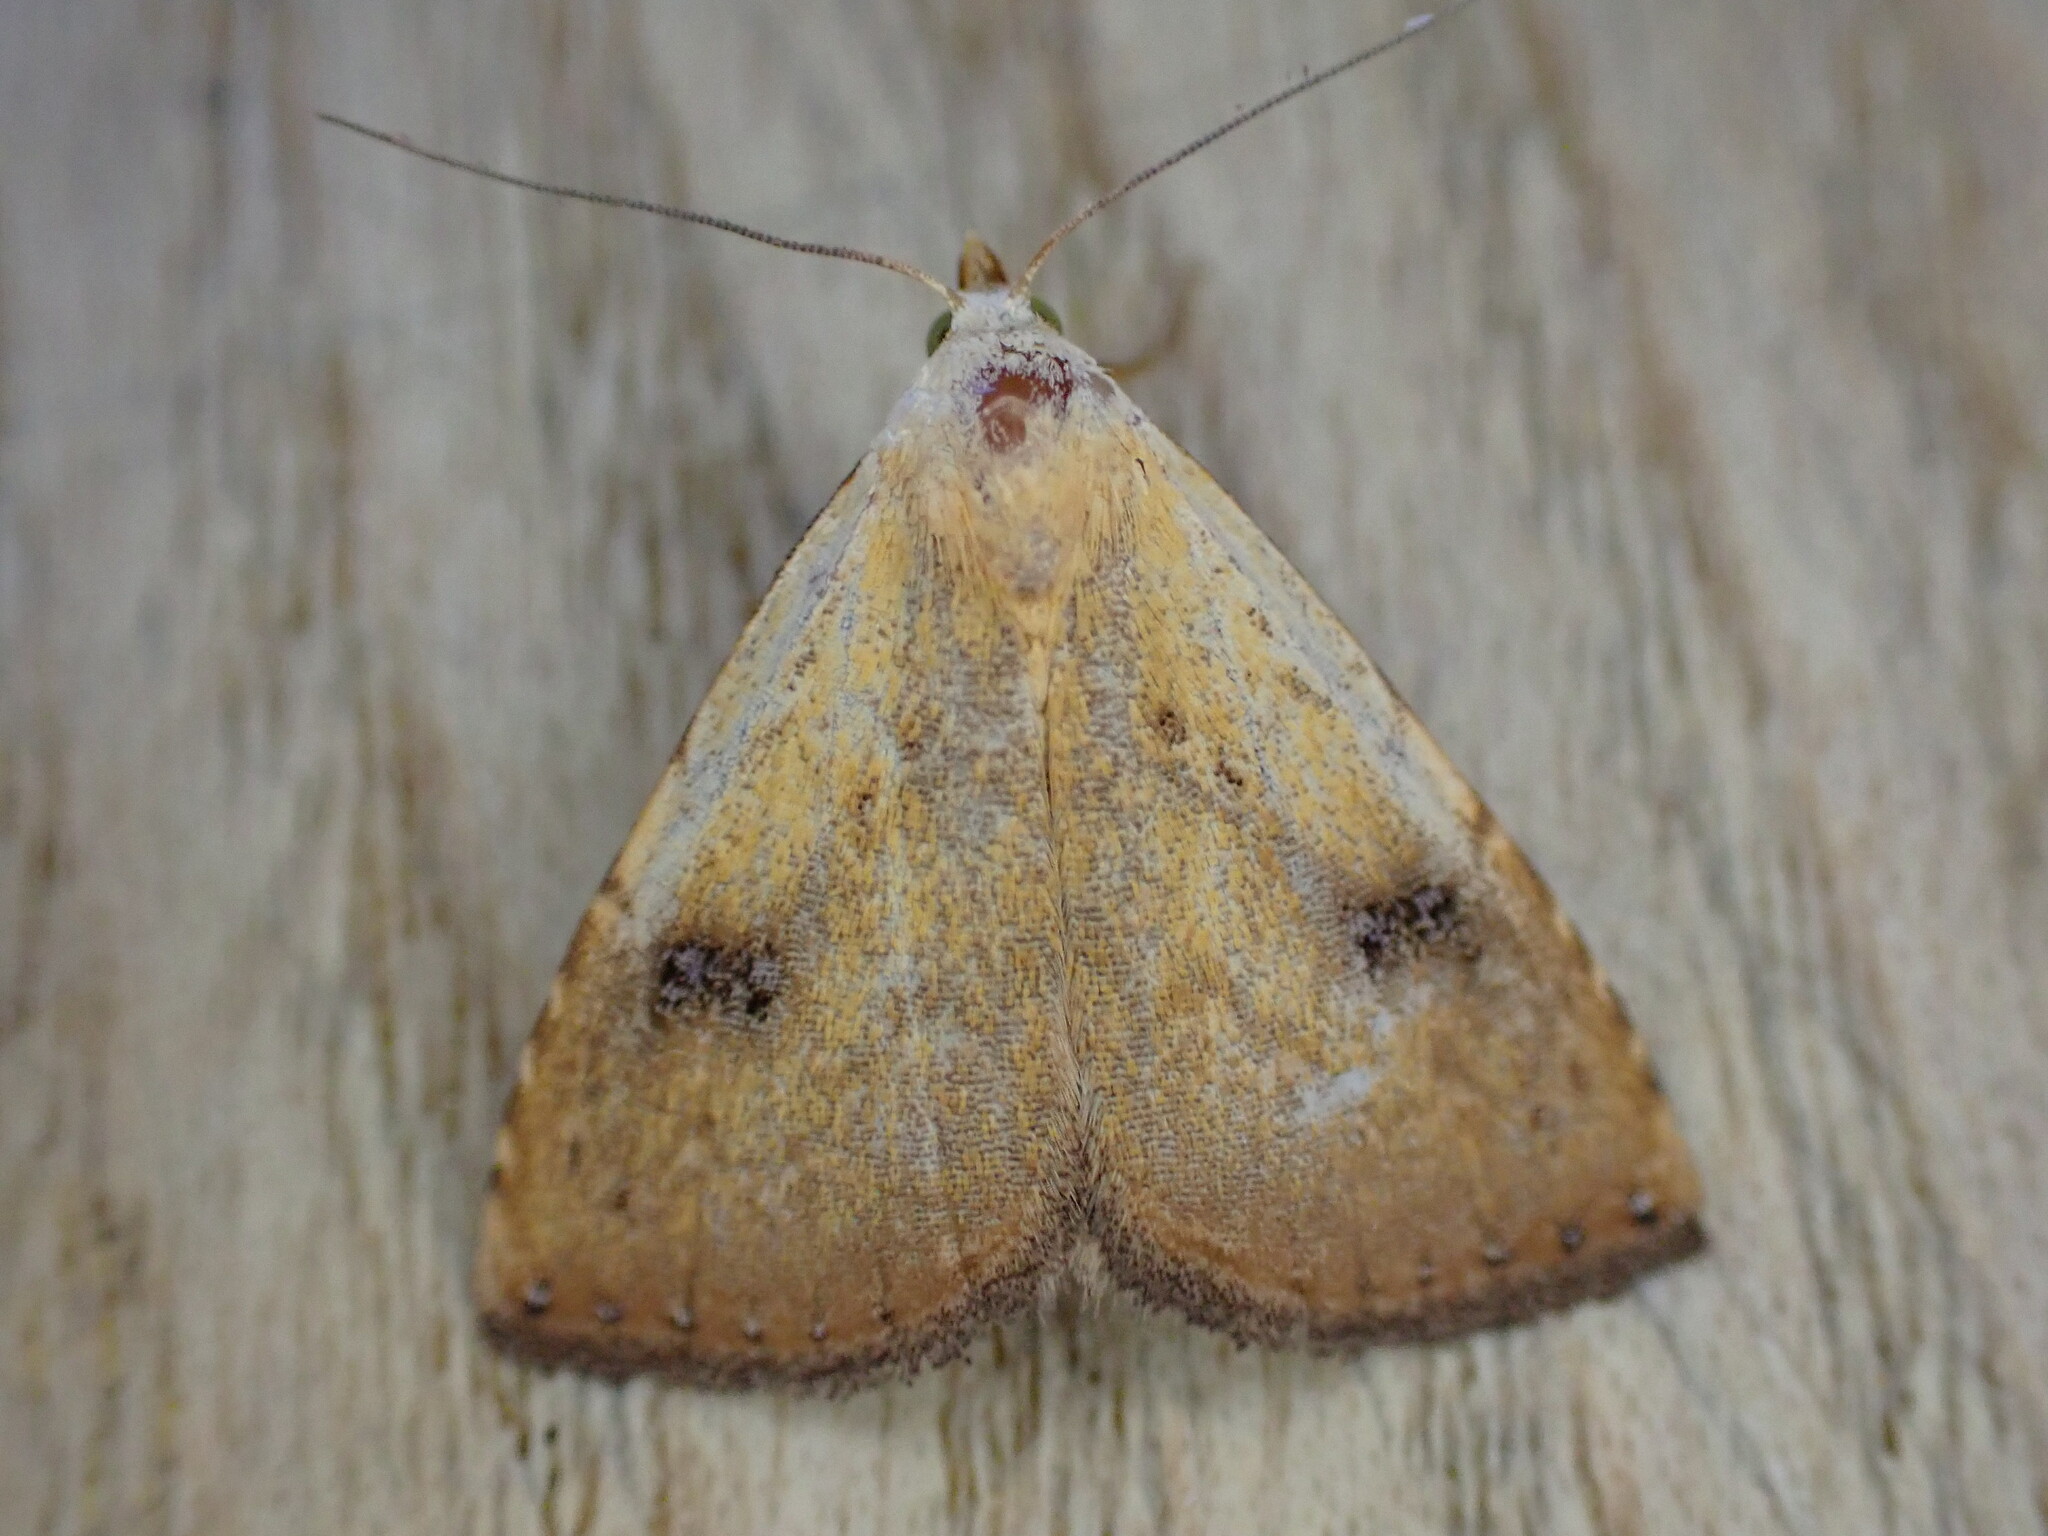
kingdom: Animalia
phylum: Arthropoda
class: Insecta
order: Lepidoptera
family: Erebidae
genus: Rivula
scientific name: Rivula sericealis
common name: Straw dot
